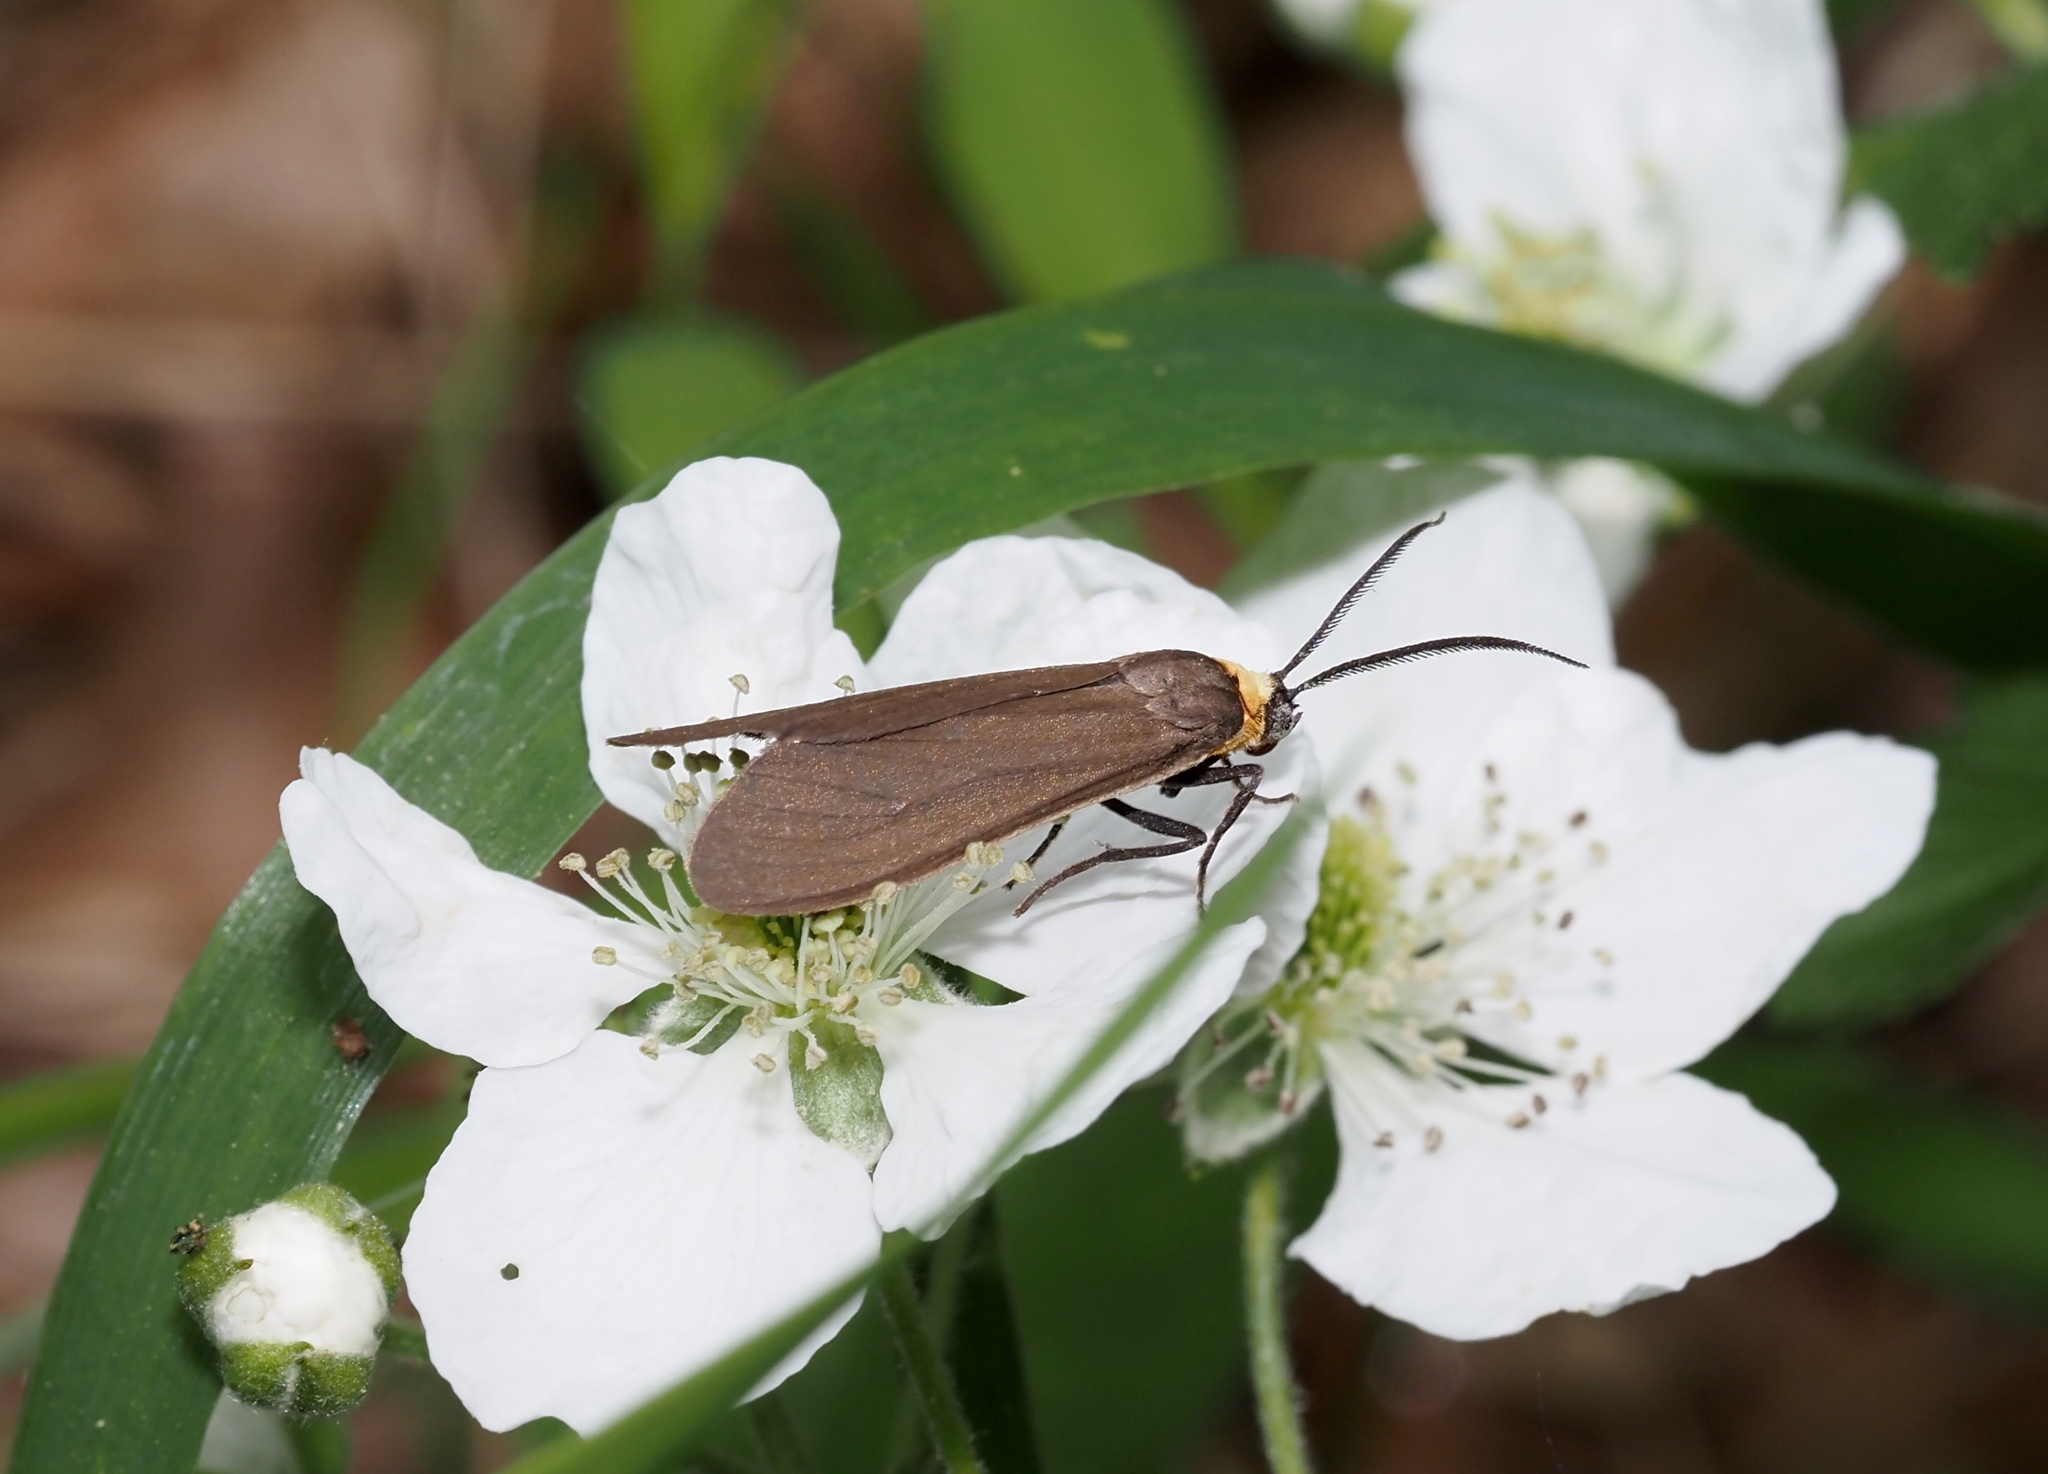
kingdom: Animalia
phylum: Arthropoda
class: Insecta
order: Lepidoptera
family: Erebidae
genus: Cisseps
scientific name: Cisseps fulvicollis
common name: Yellow-collared scape moth
